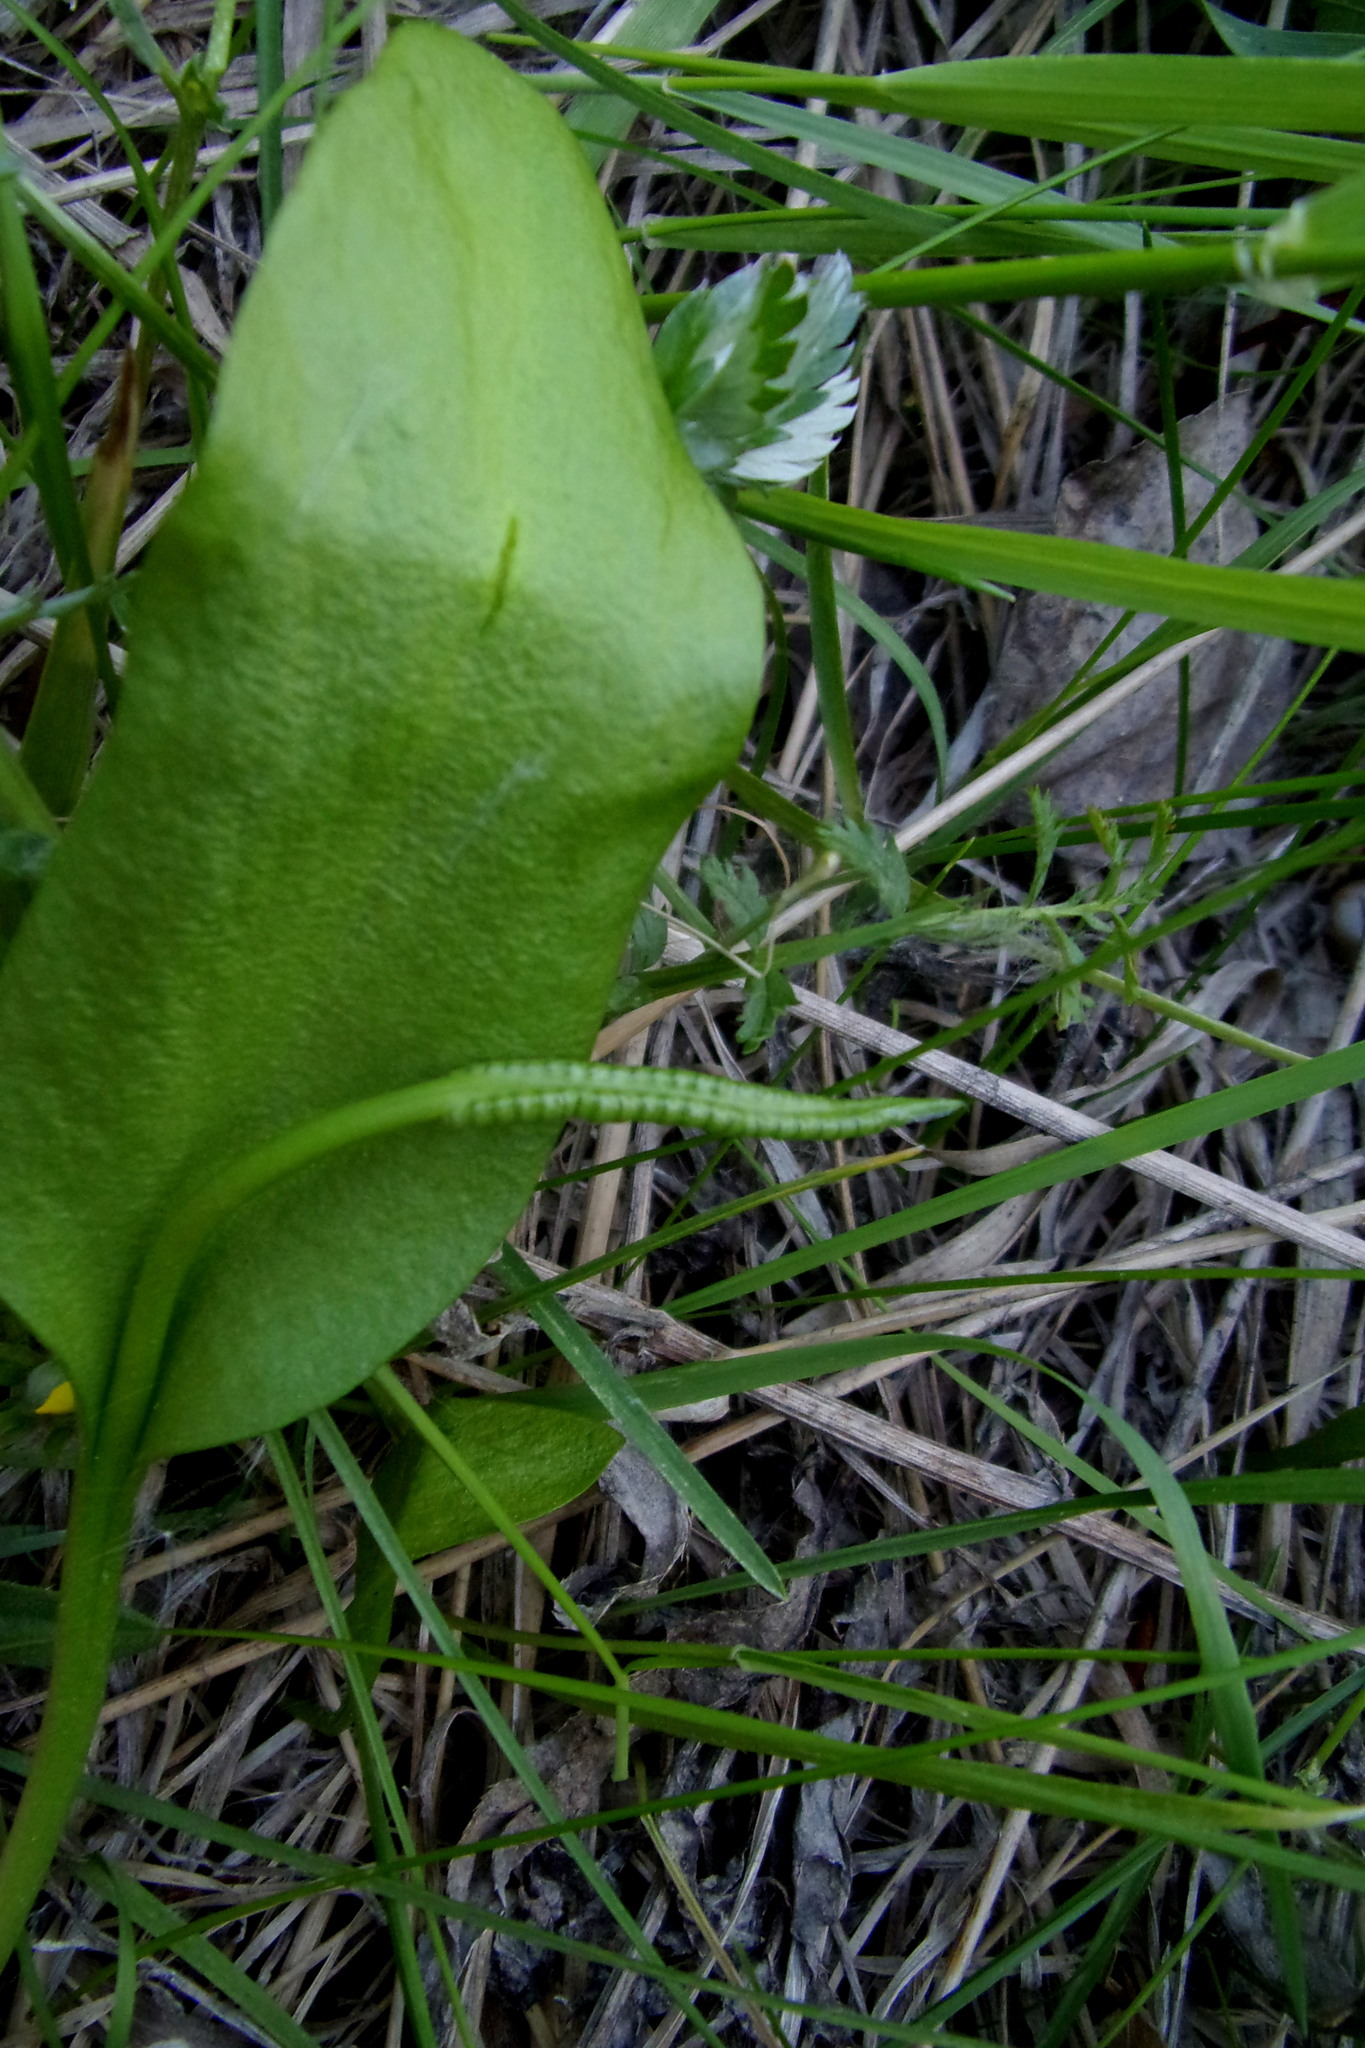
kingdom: Plantae
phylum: Tracheophyta
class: Polypodiopsida
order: Ophioglossales
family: Ophioglossaceae
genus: Ophioglossum
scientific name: Ophioglossum vulgatum
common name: Adder's-tongue
